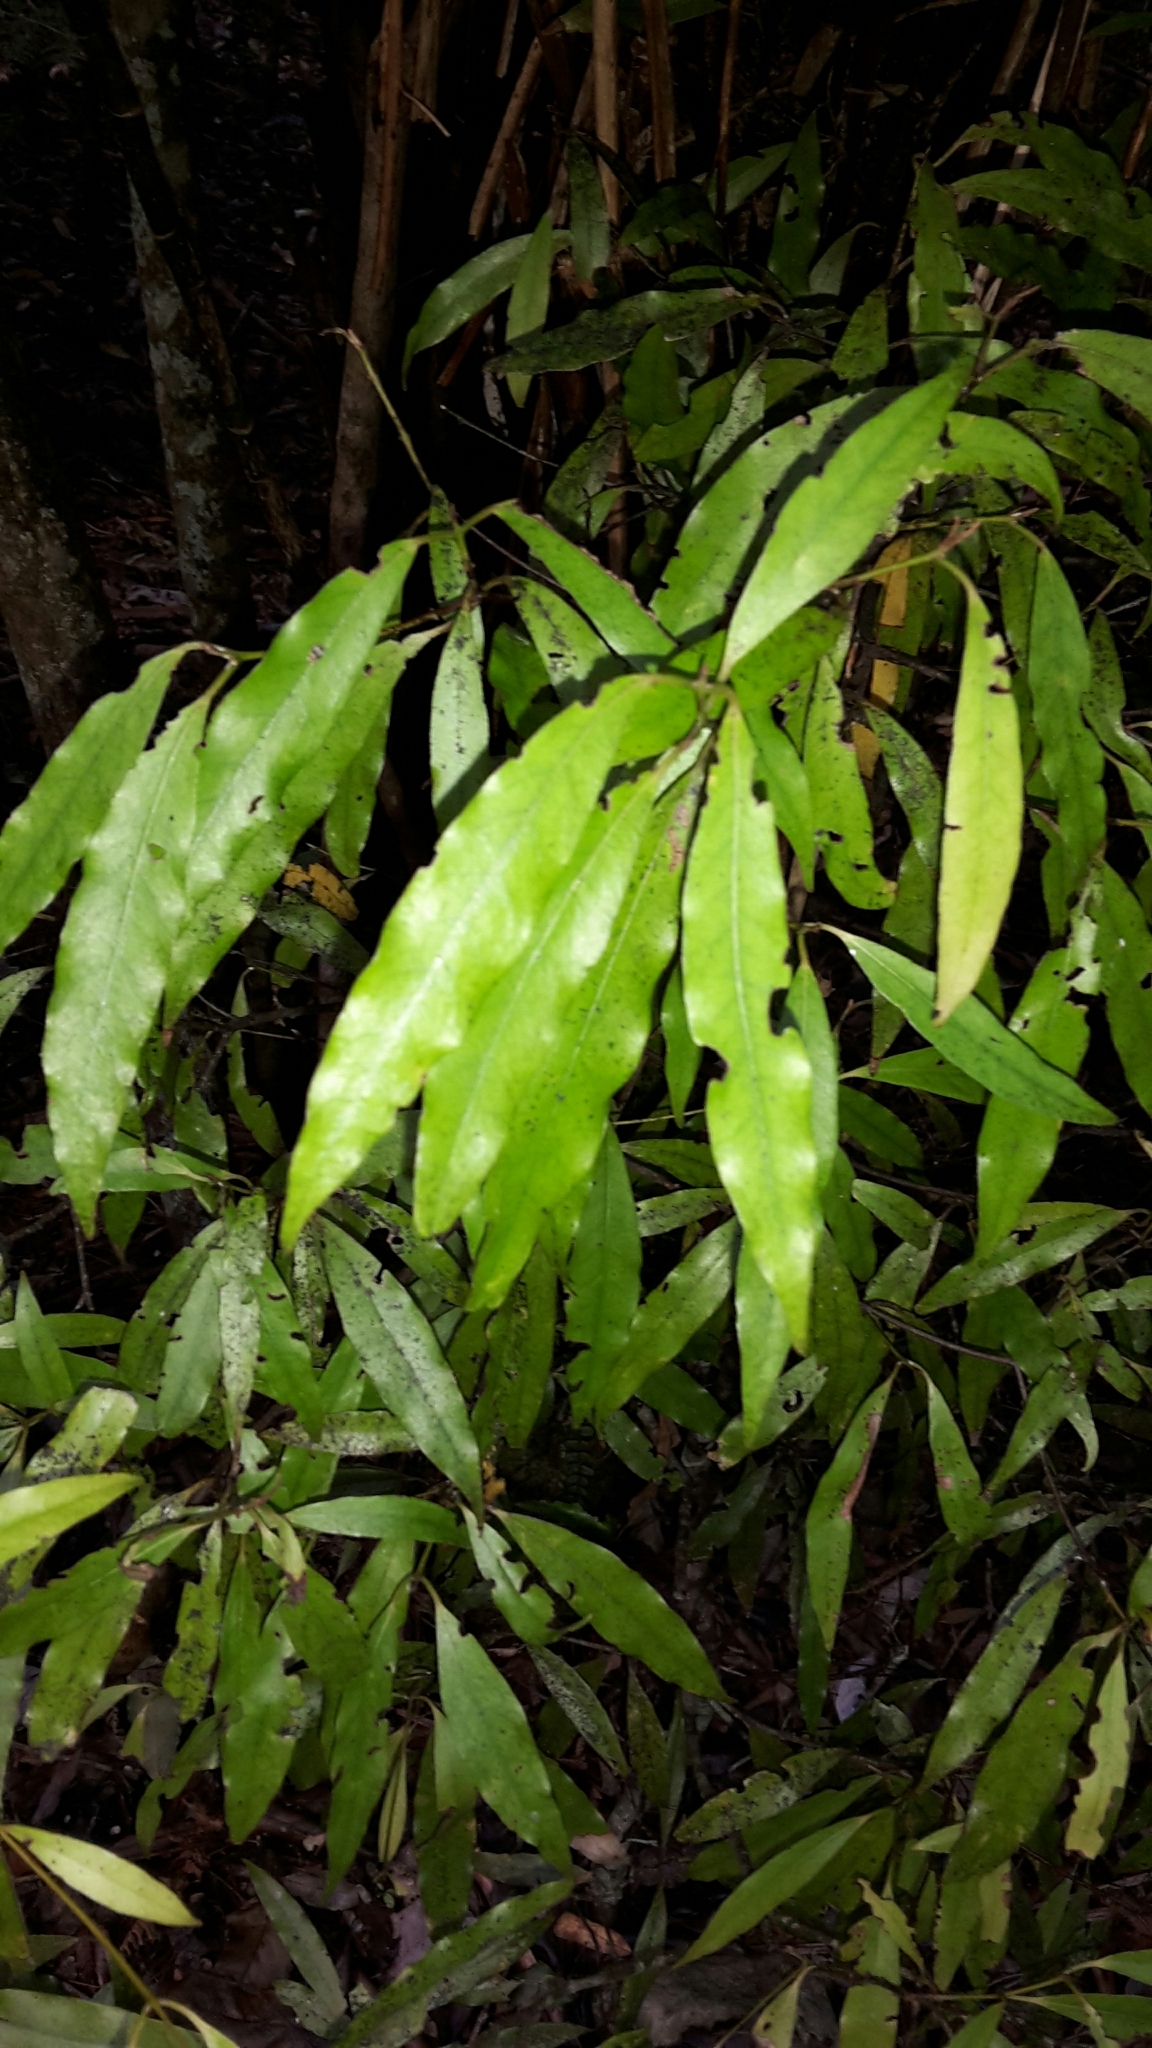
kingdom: Plantae
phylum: Tracheophyta
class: Magnoliopsida
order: Laurales
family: Lauraceae
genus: Beilschmiedia
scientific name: Beilschmiedia tawa
